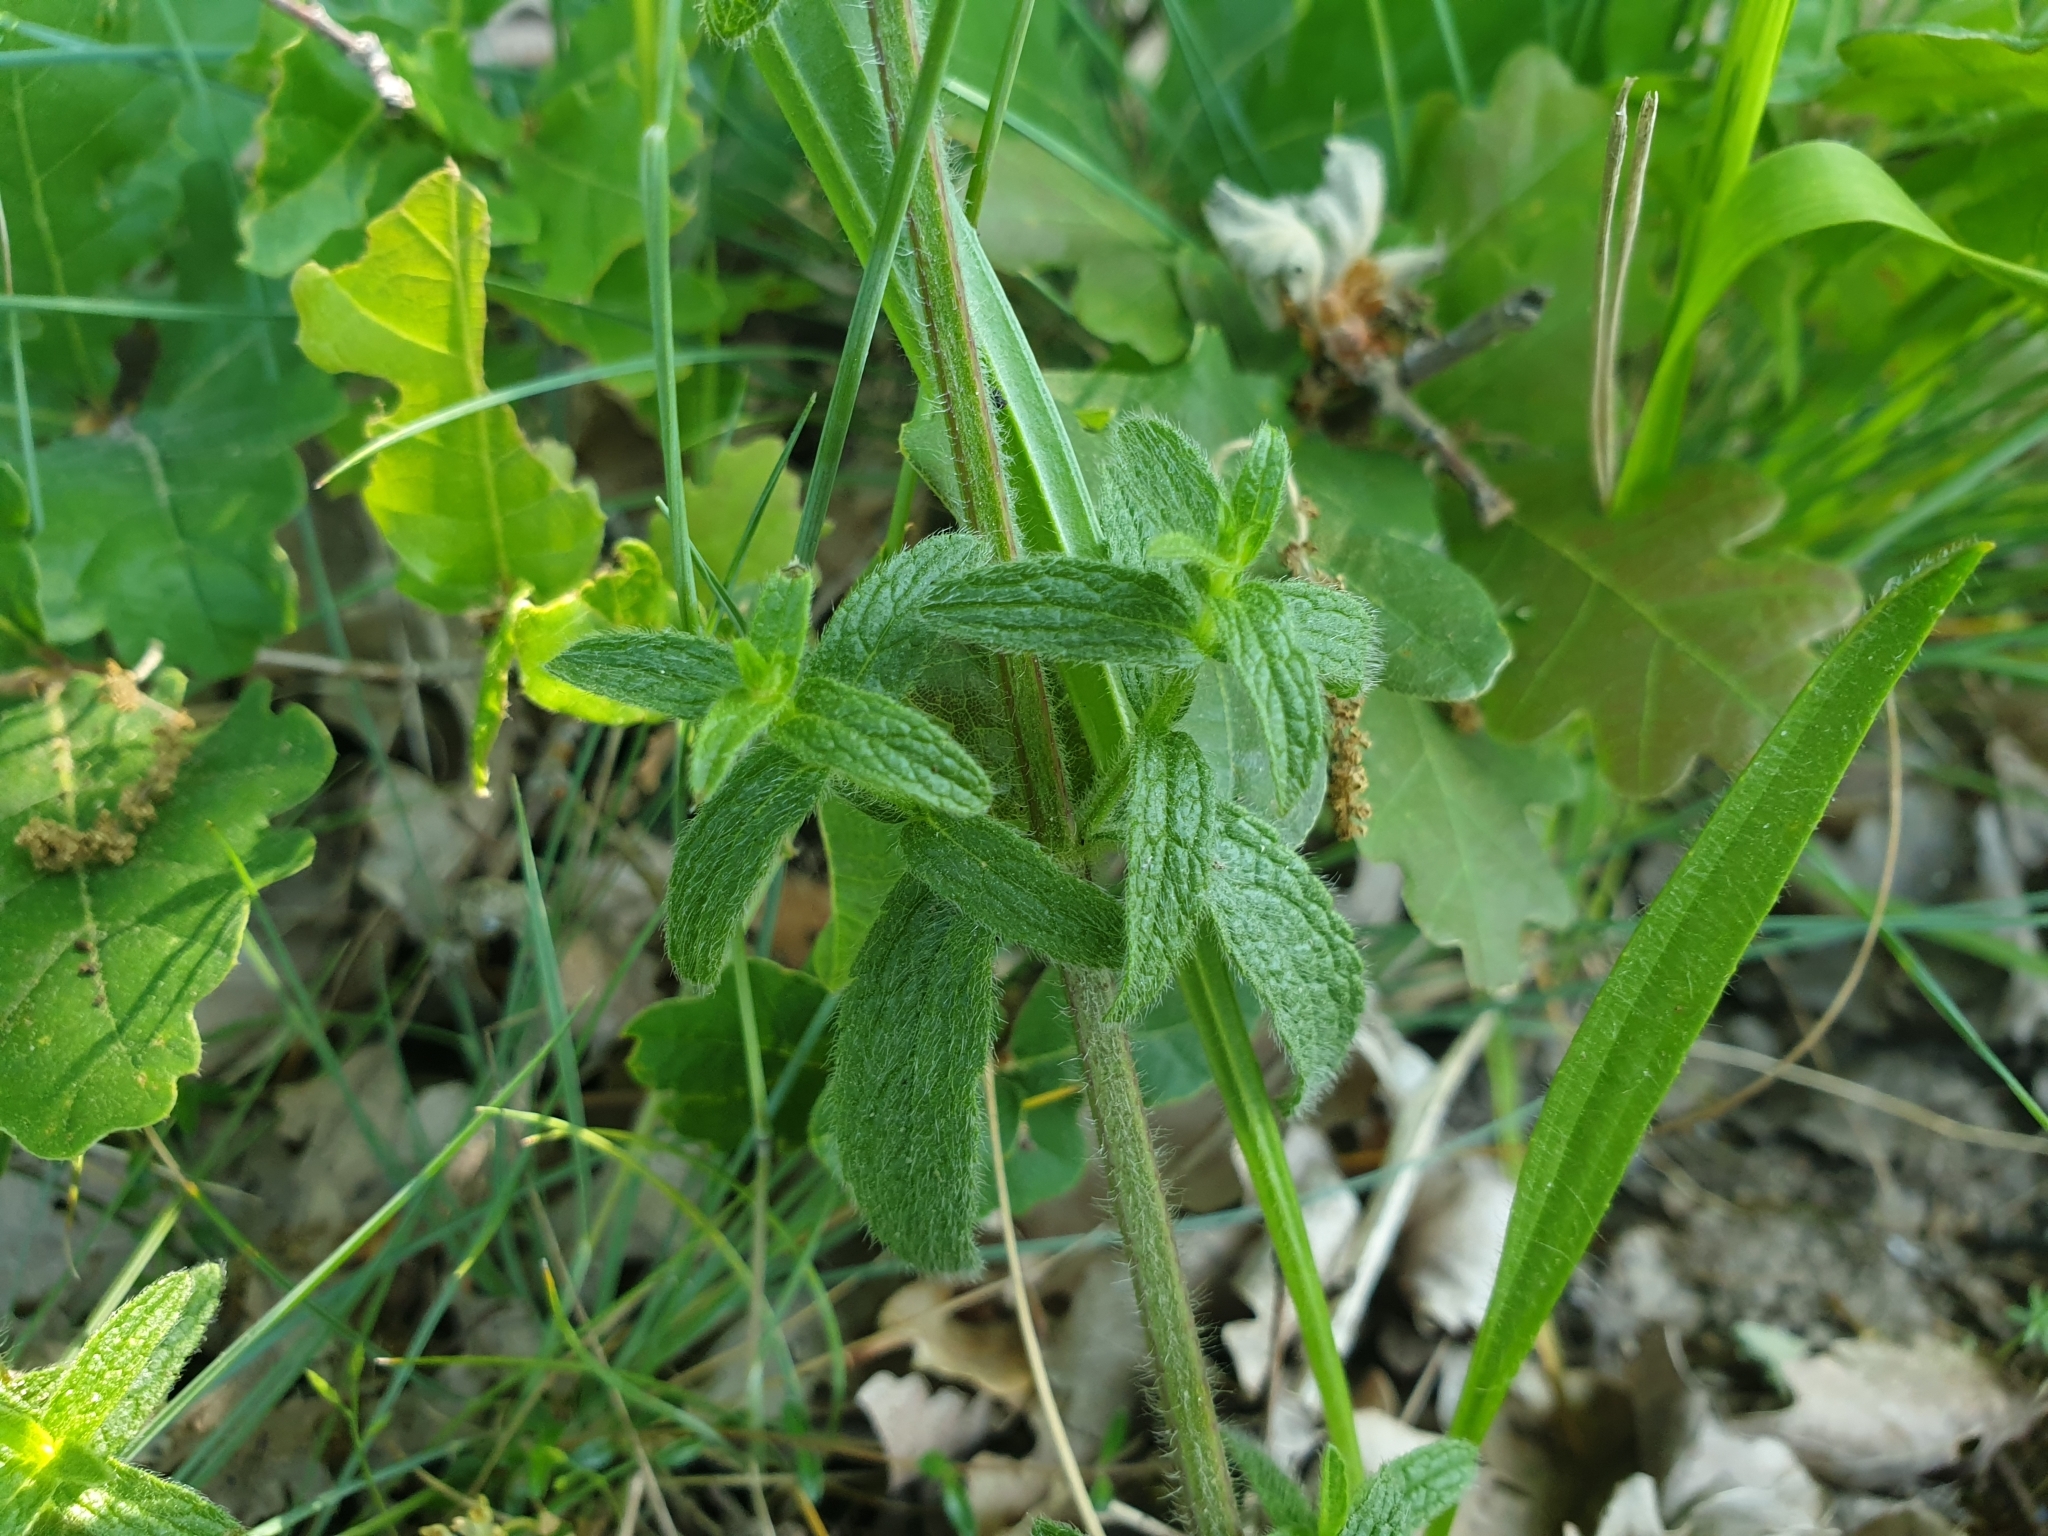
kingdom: Plantae
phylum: Tracheophyta
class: Magnoliopsida
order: Lamiales
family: Lamiaceae
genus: Stachys
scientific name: Stachys recta
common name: Perennial yellow-woundwort
